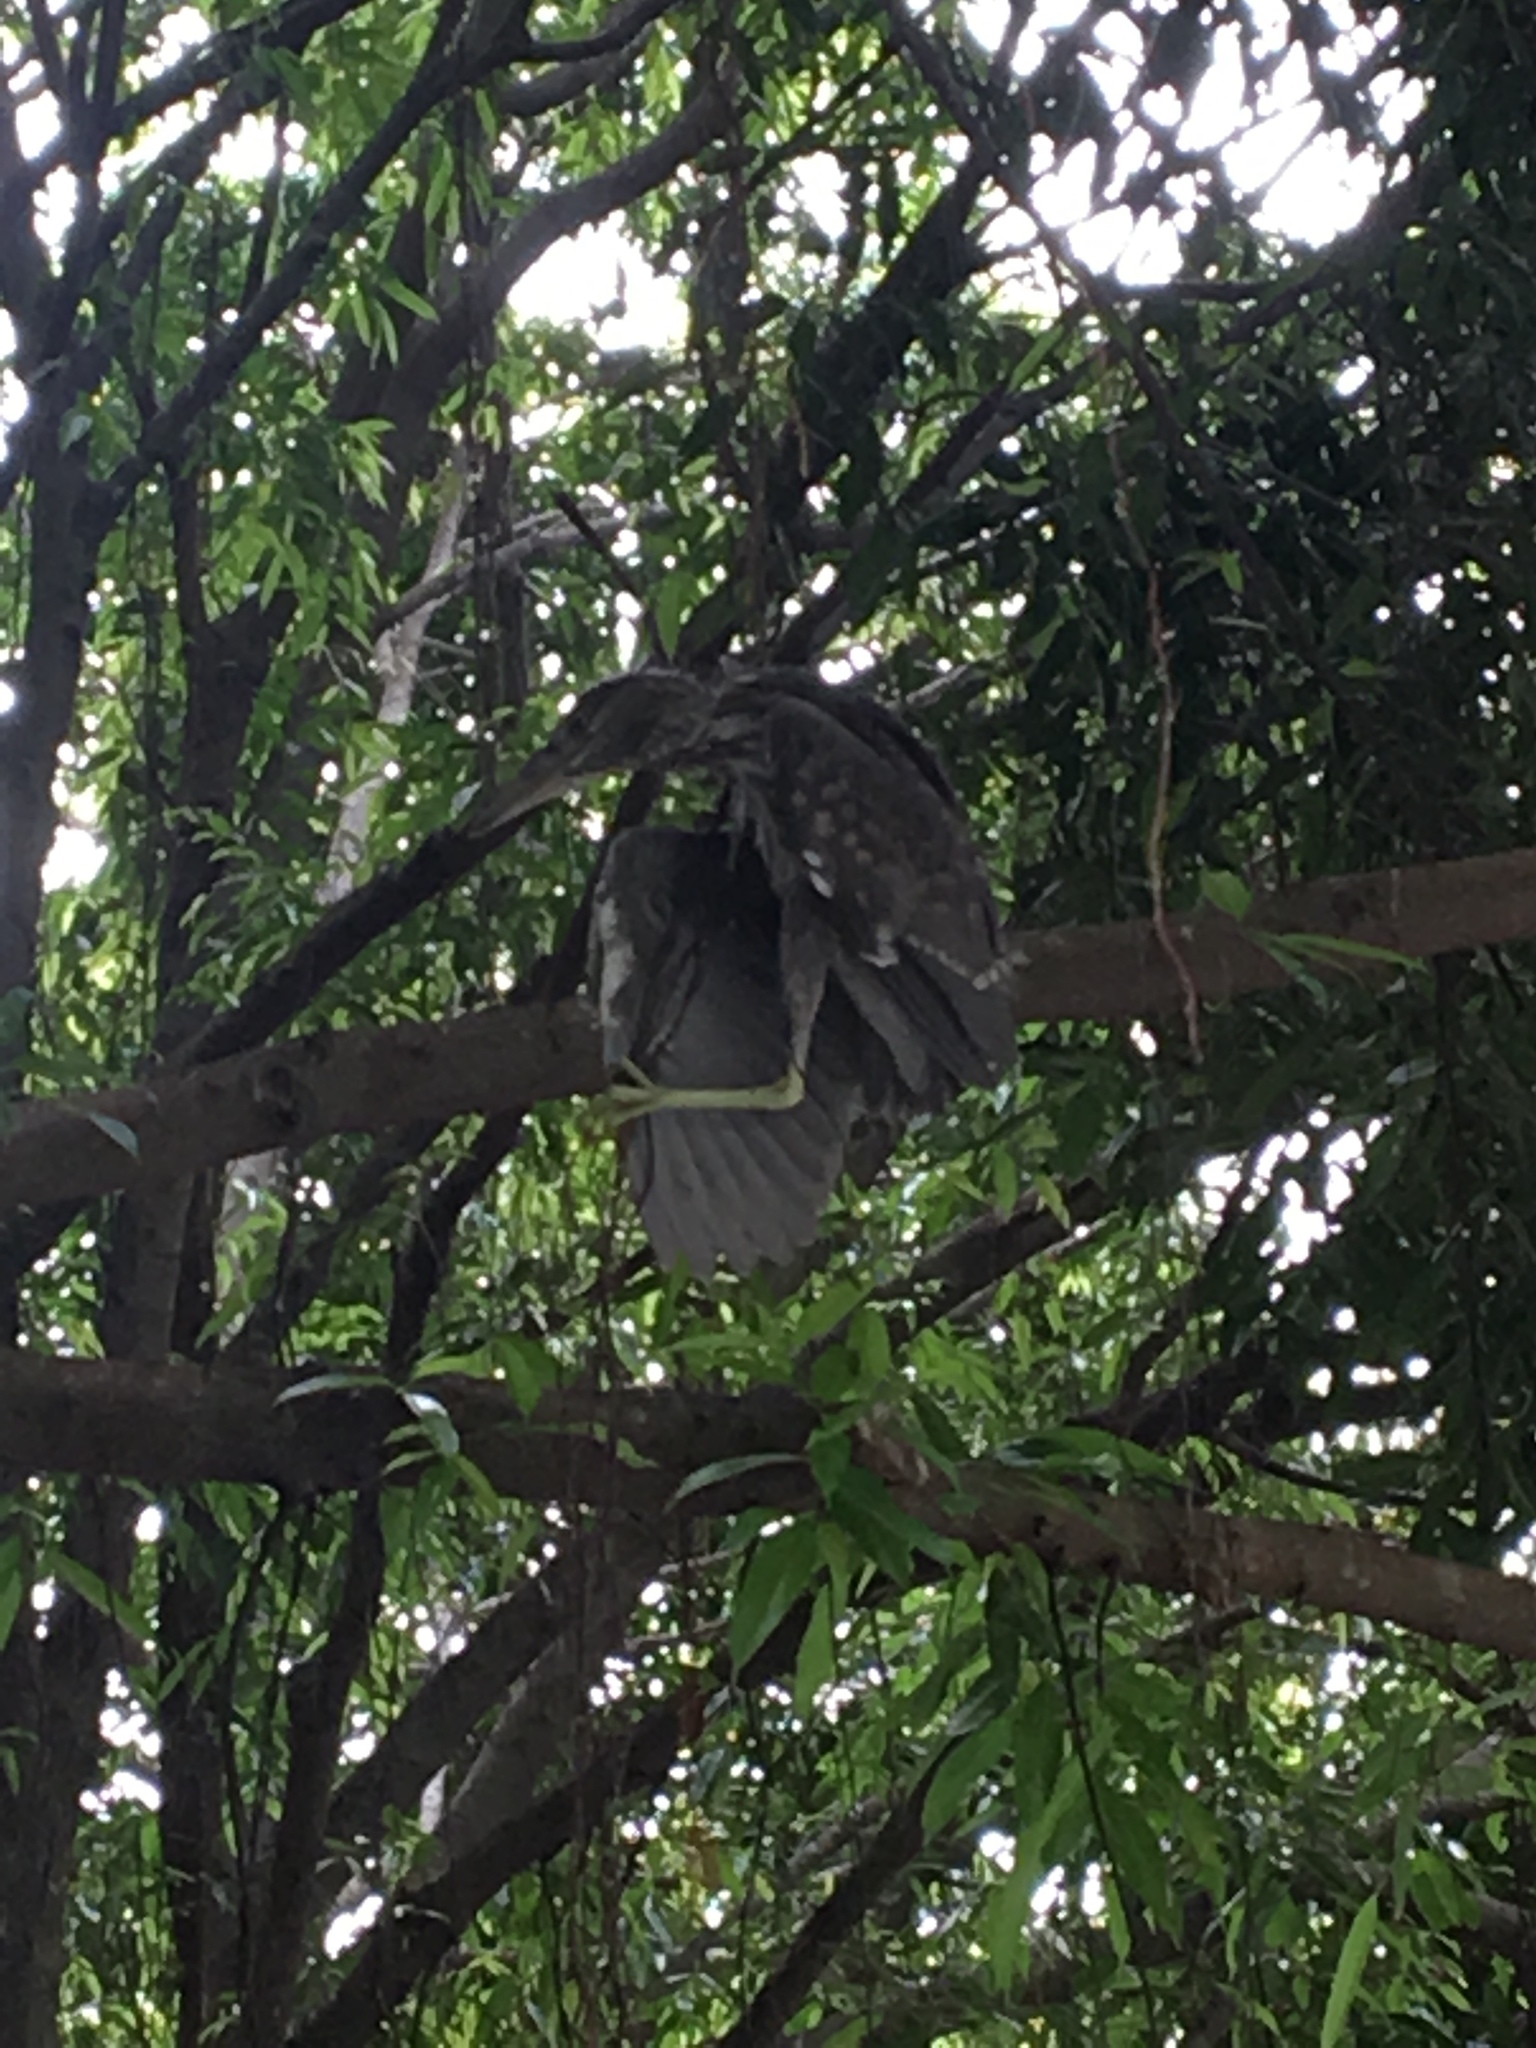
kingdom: Animalia
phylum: Chordata
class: Aves
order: Pelecaniformes
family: Ardeidae
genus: Nycticorax
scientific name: Nycticorax nycticorax
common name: Black-crowned night heron
